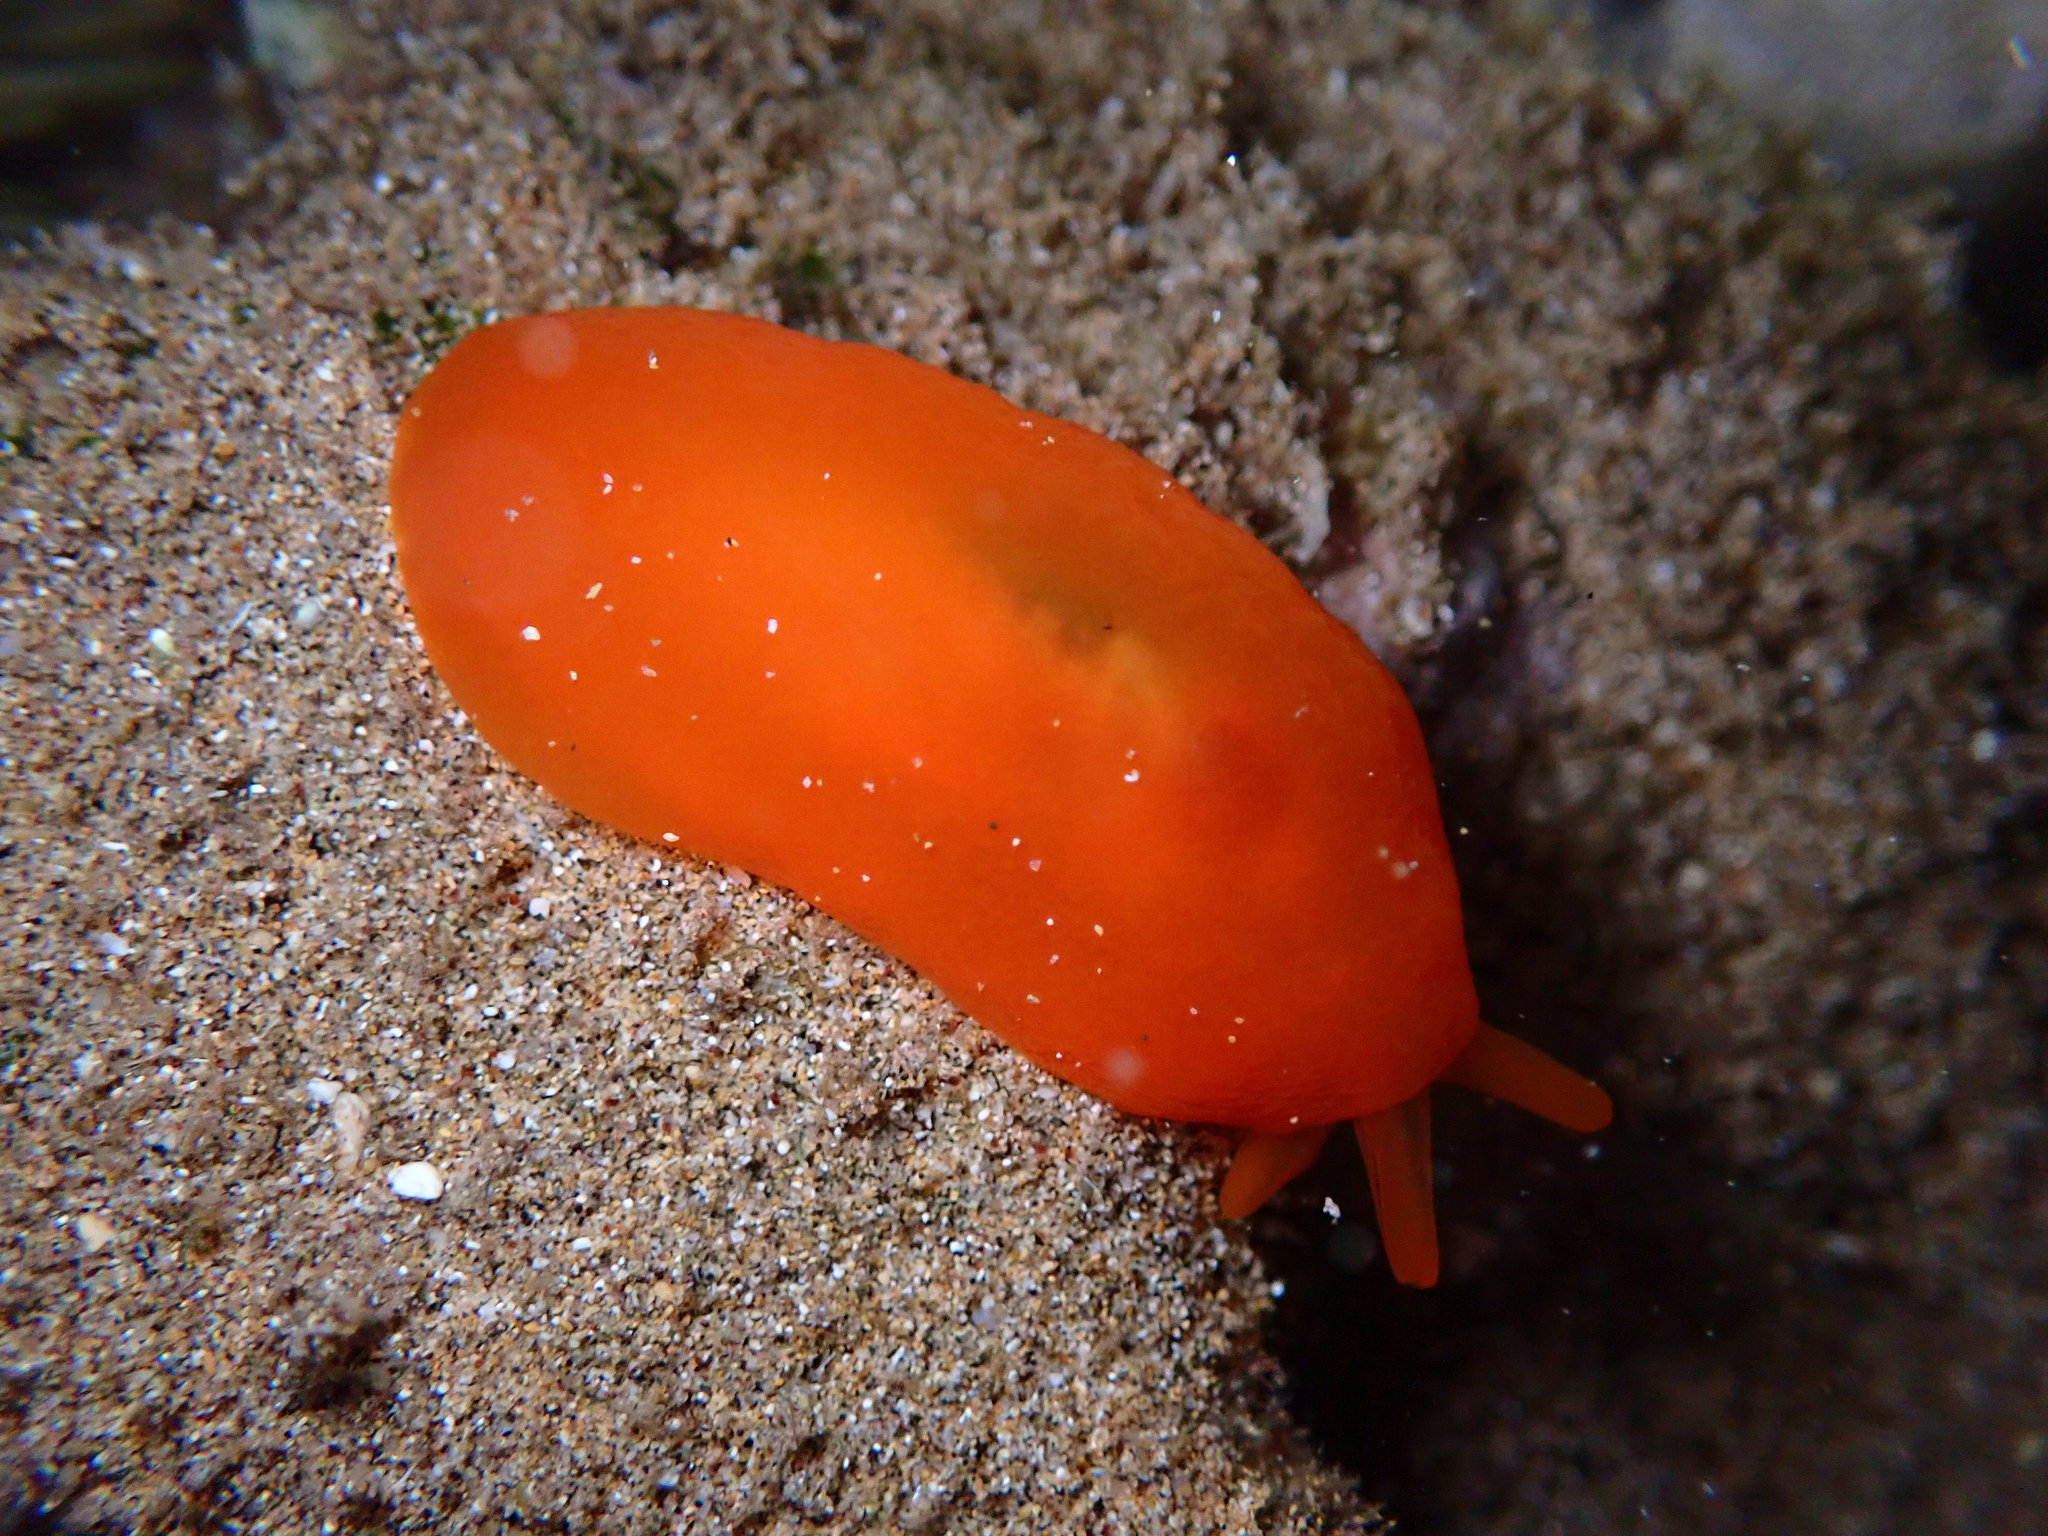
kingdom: Animalia
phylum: Mollusca
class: Gastropoda
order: Pleurobranchida
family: Pleurobranchidae
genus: Berthellina
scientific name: Berthellina delicata
